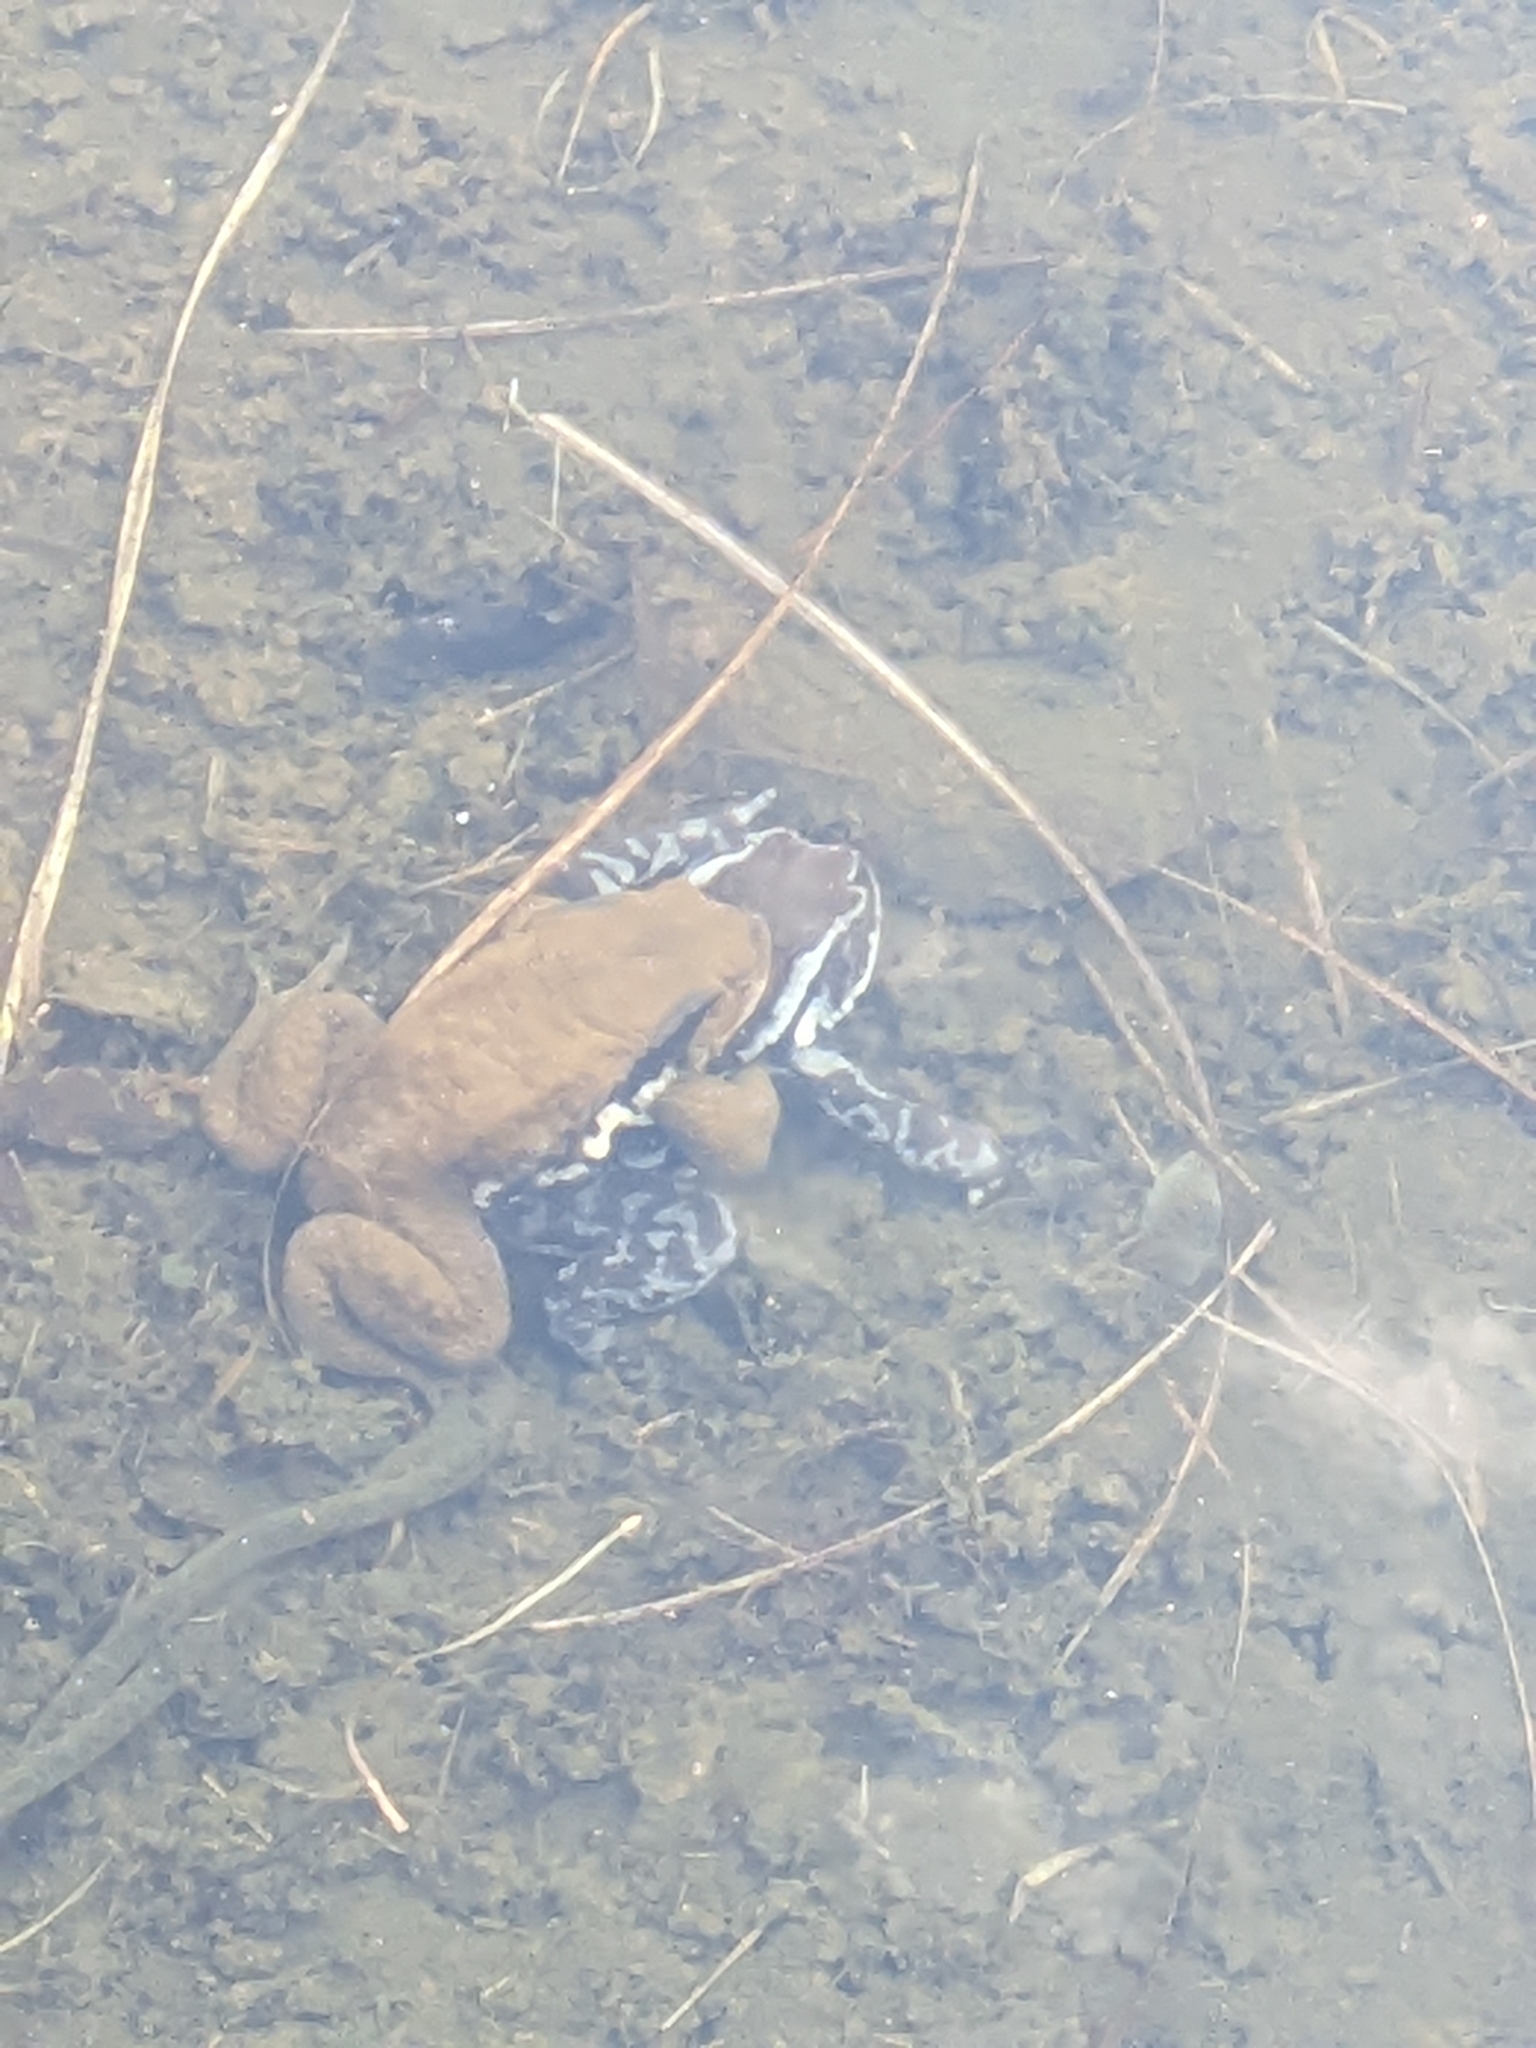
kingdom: Animalia
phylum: Chordata
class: Amphibia
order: Anura
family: Bufonidae
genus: Bufo
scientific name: Bufo japonicus
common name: Japanese common toad
